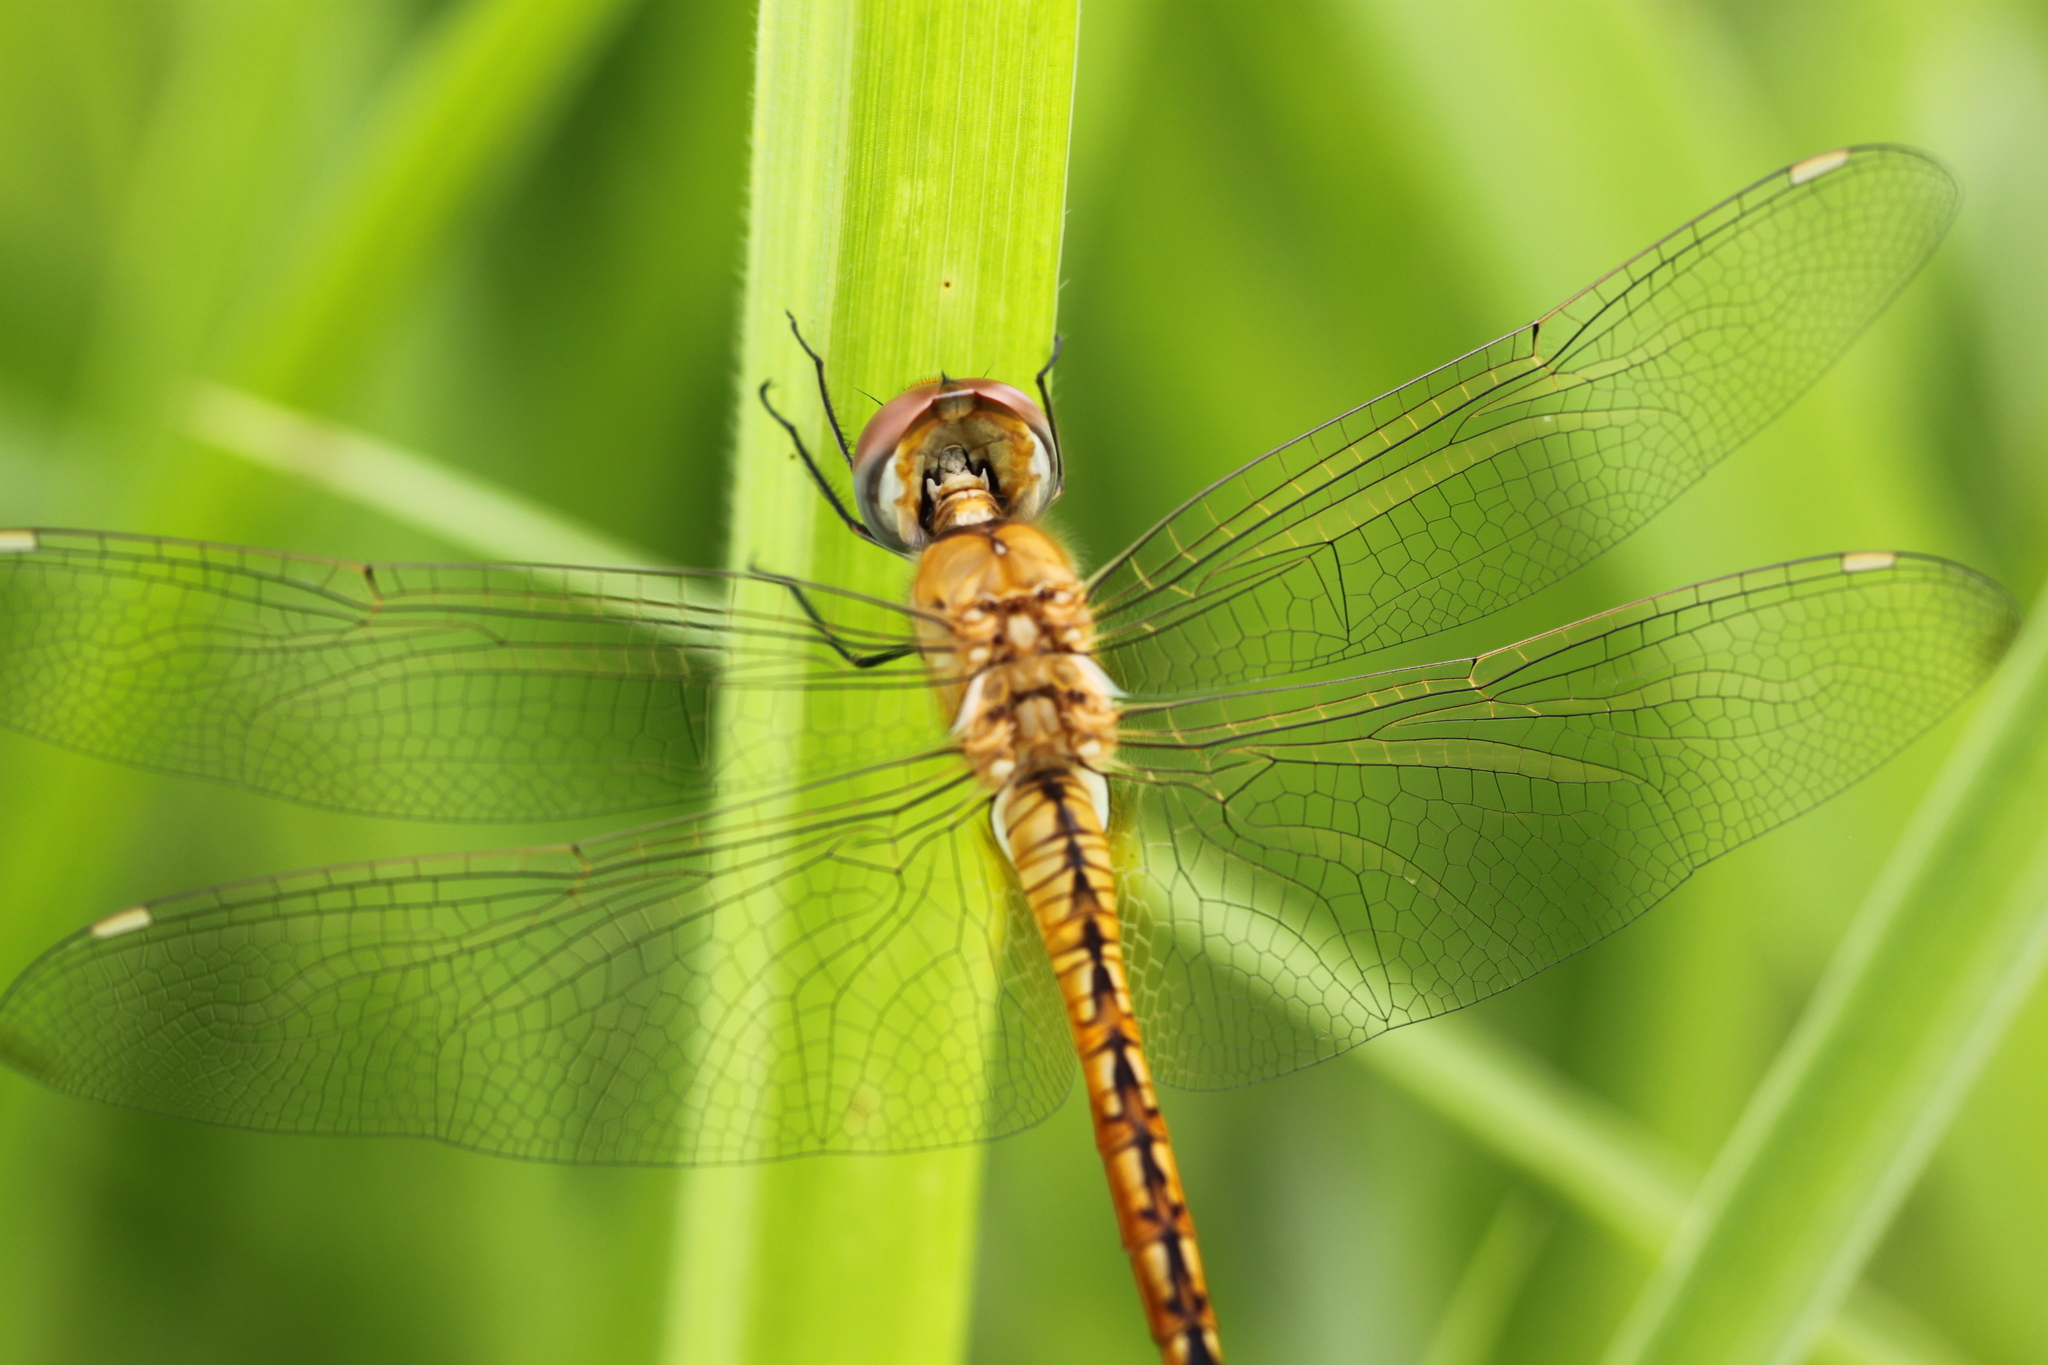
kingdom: Animalia
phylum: Arthropoda
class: Insecta
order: Odonata
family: Libellulidae
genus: Pantala
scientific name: Pantala flavescens
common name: Wandering glider
